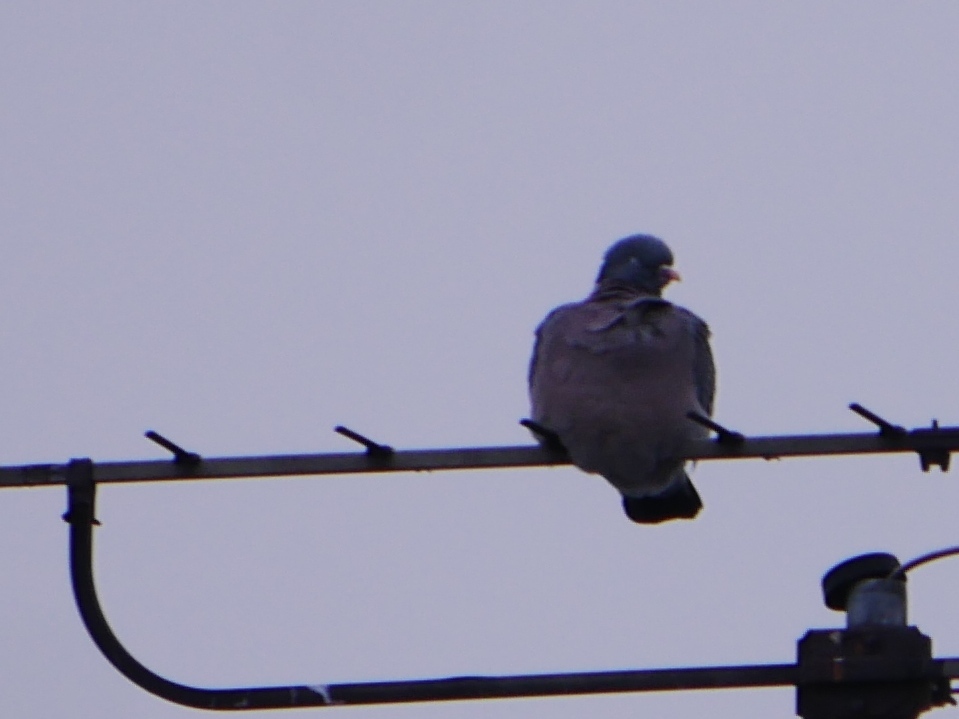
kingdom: Animalia
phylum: Chordata
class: Aves
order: Columbiformes
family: Columbidae
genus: Columba
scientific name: Columba palumbus
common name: Common wood pigeon
